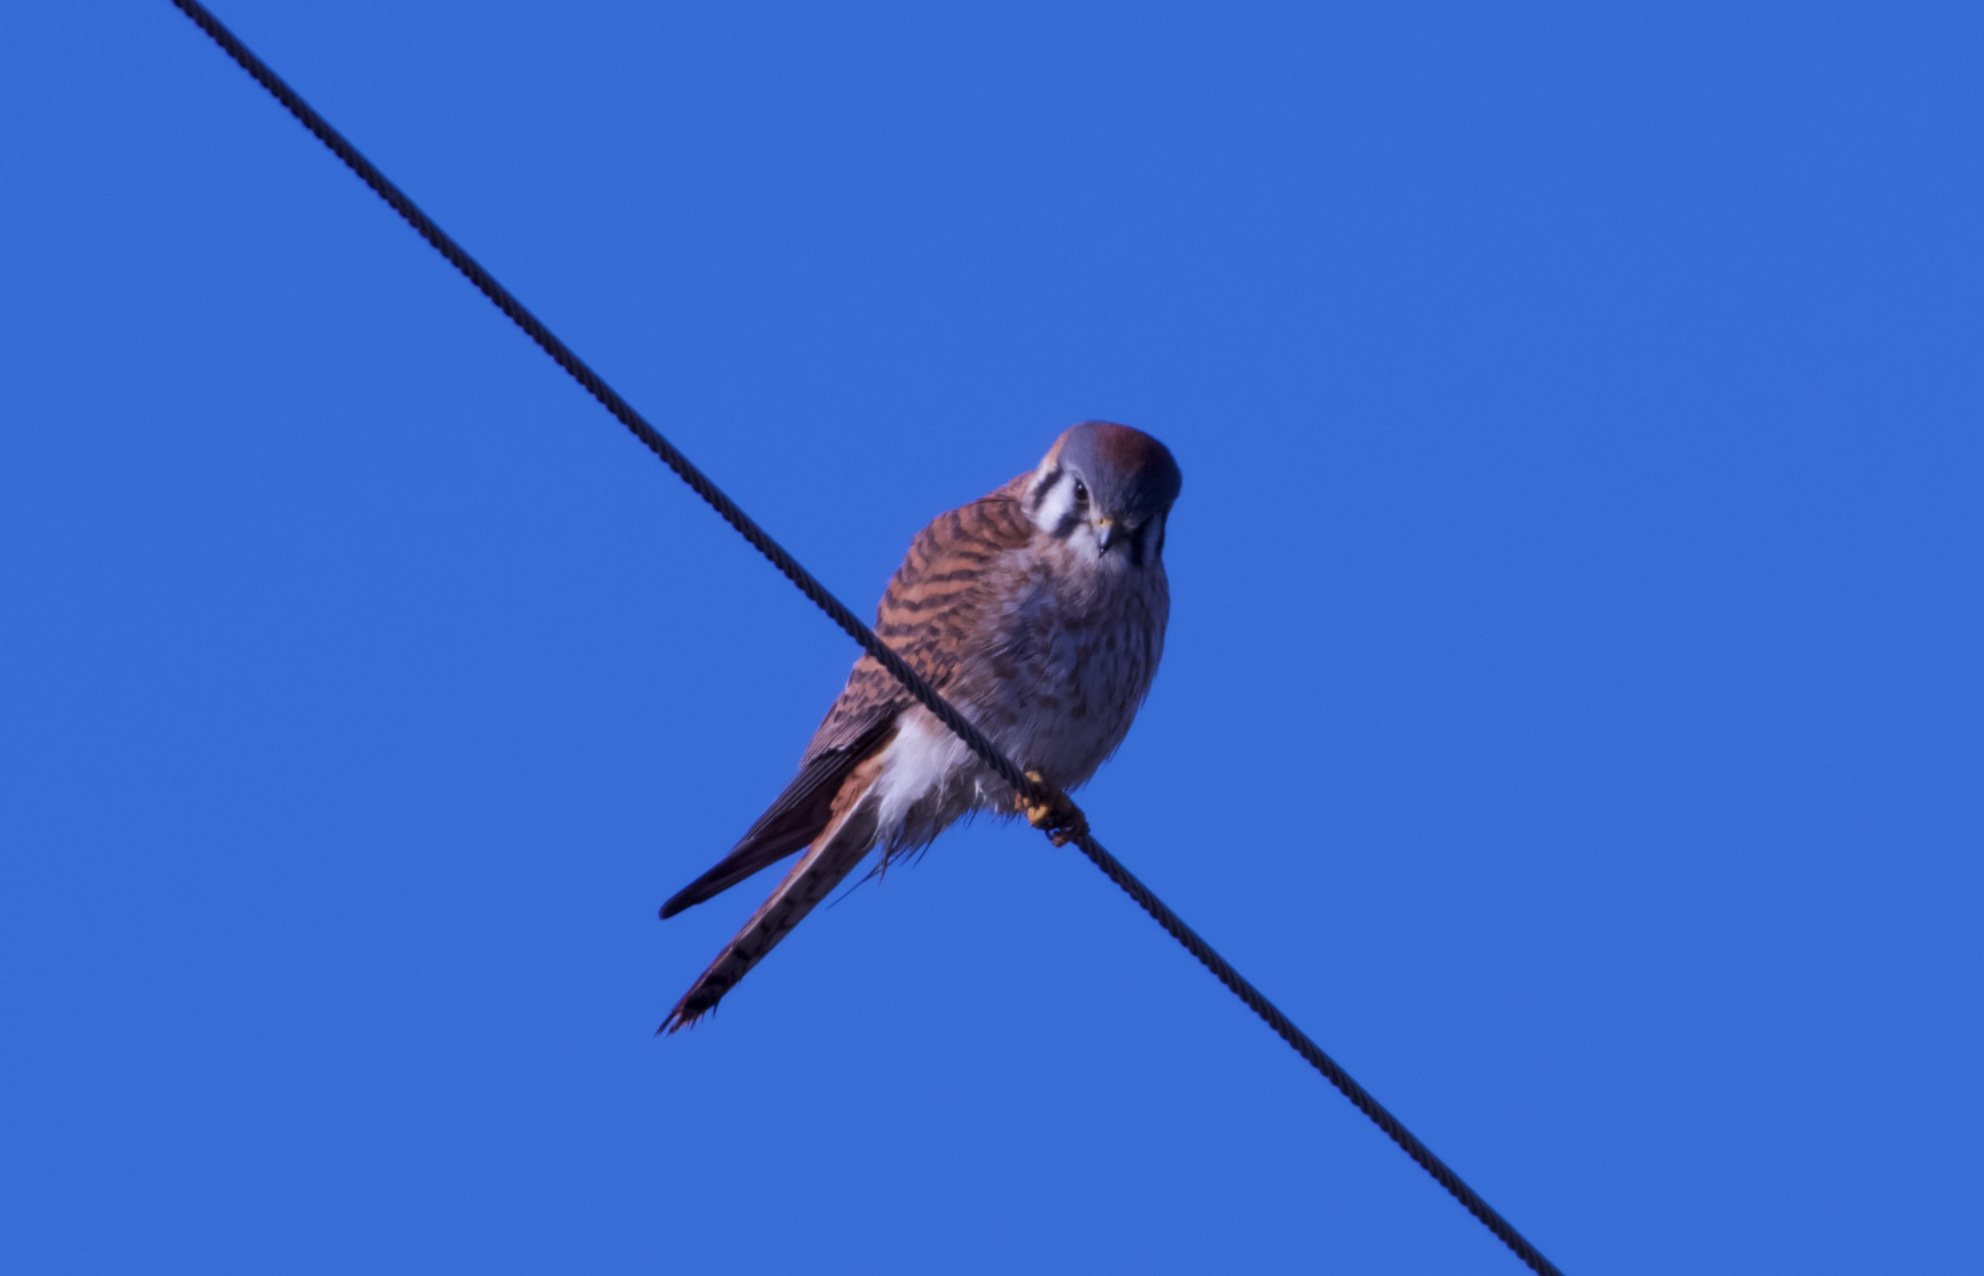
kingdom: Animalia
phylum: Chordata
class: Aves
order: Falconiformes
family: Falconidae
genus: Falco
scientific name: Falco sparverius
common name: American kestrel
